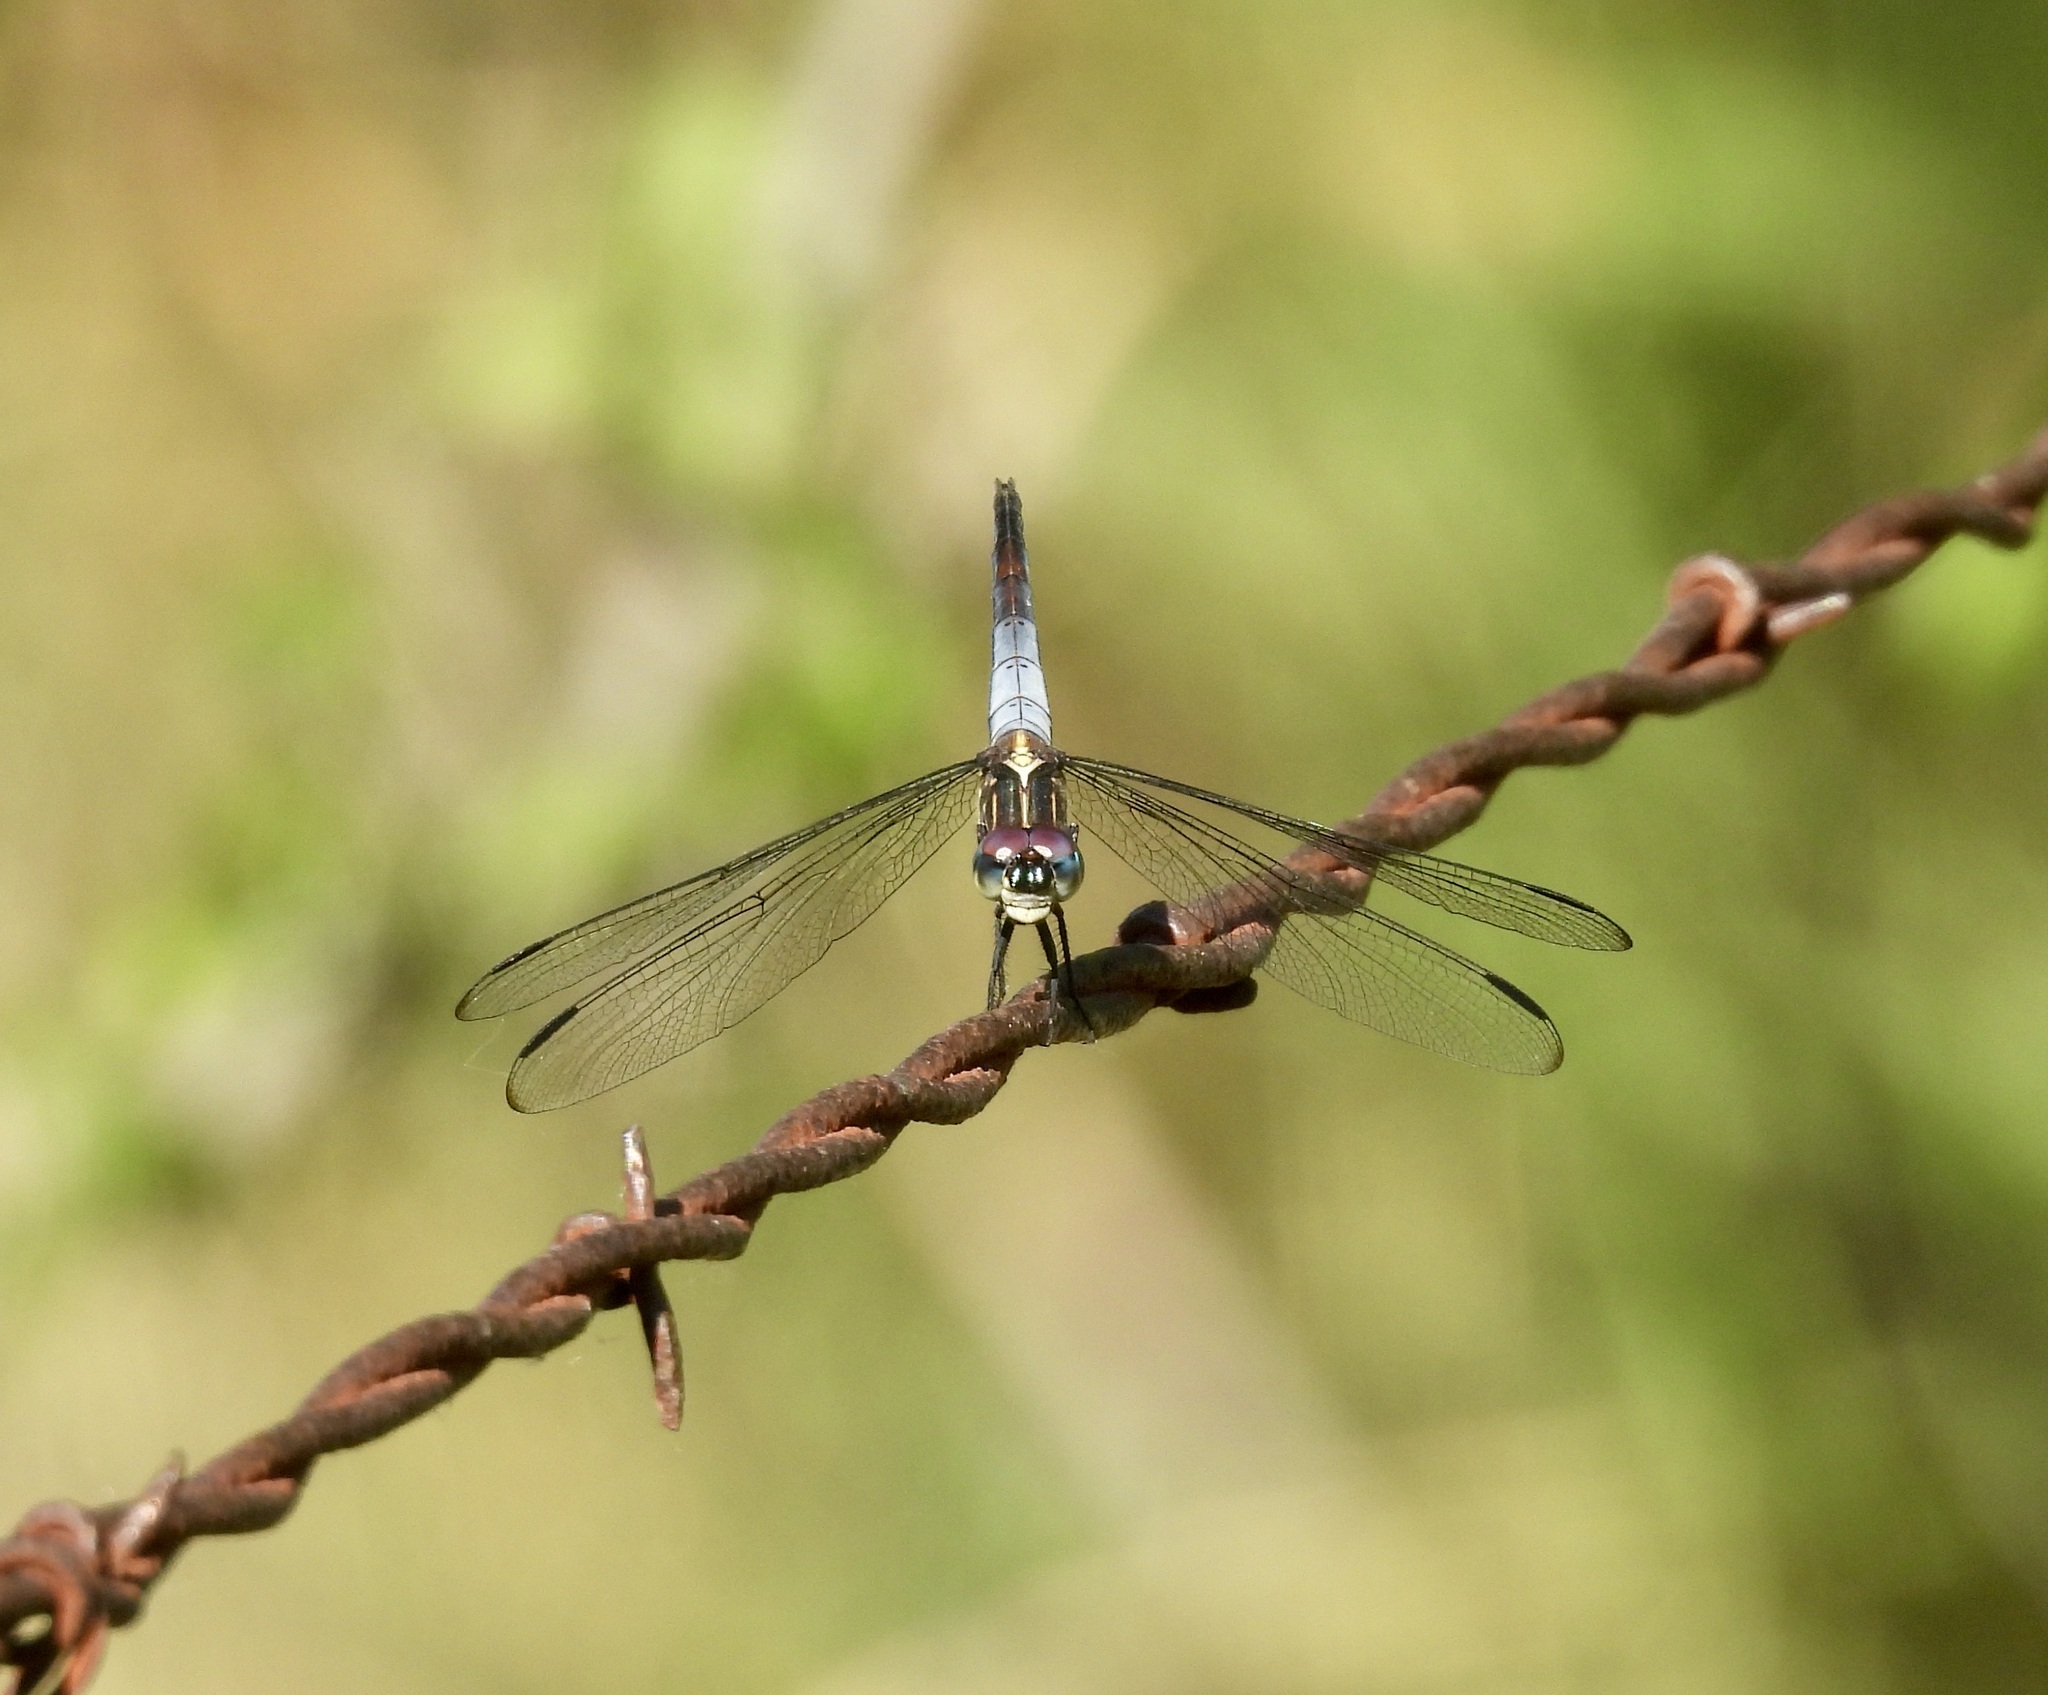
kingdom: Animalia
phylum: Arthropoda
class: Insecta
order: Odonata
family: Libellulidae
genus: Cannaphila
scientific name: Cannaphila insularis
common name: Gray-waisted skimmer
